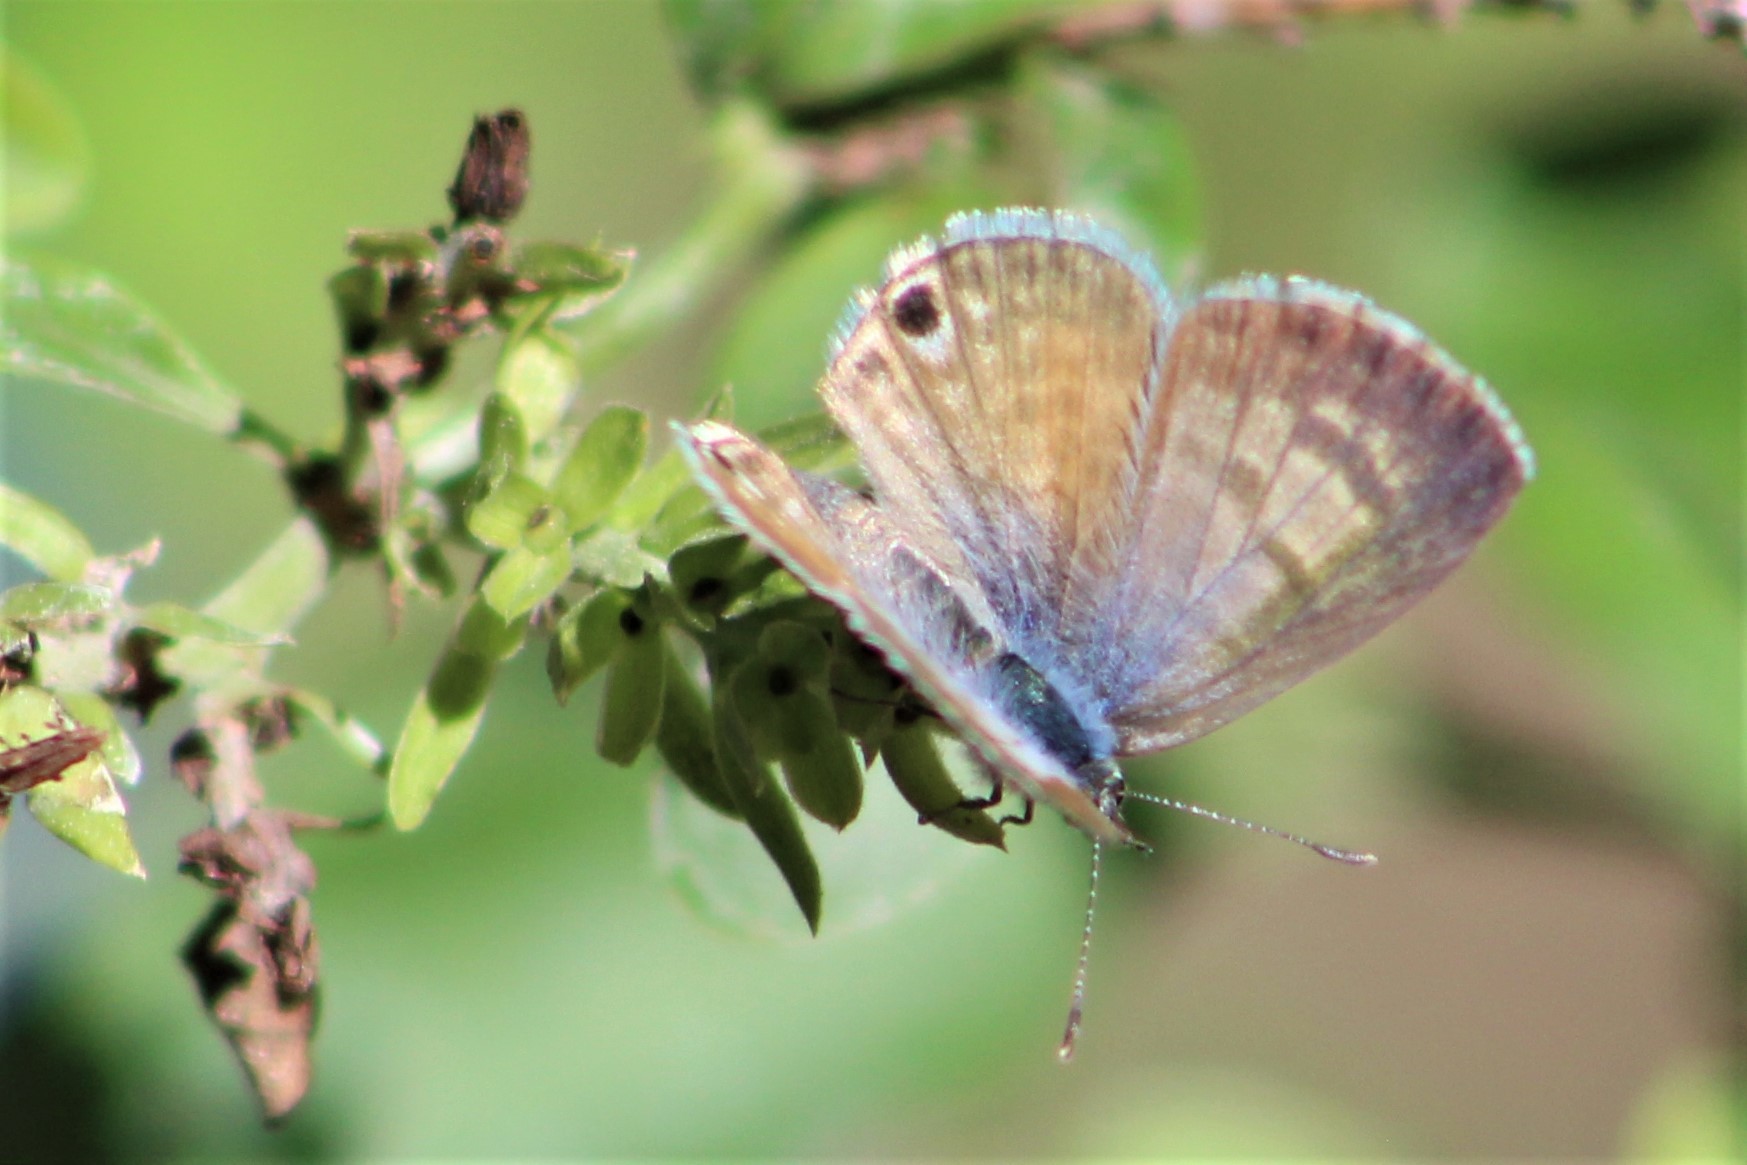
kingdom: Animalia
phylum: Arthropoda
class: Insecta
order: Lepidoptera
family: Lycaenidae
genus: Leptotes
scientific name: Leptotes marina
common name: Marine blue
